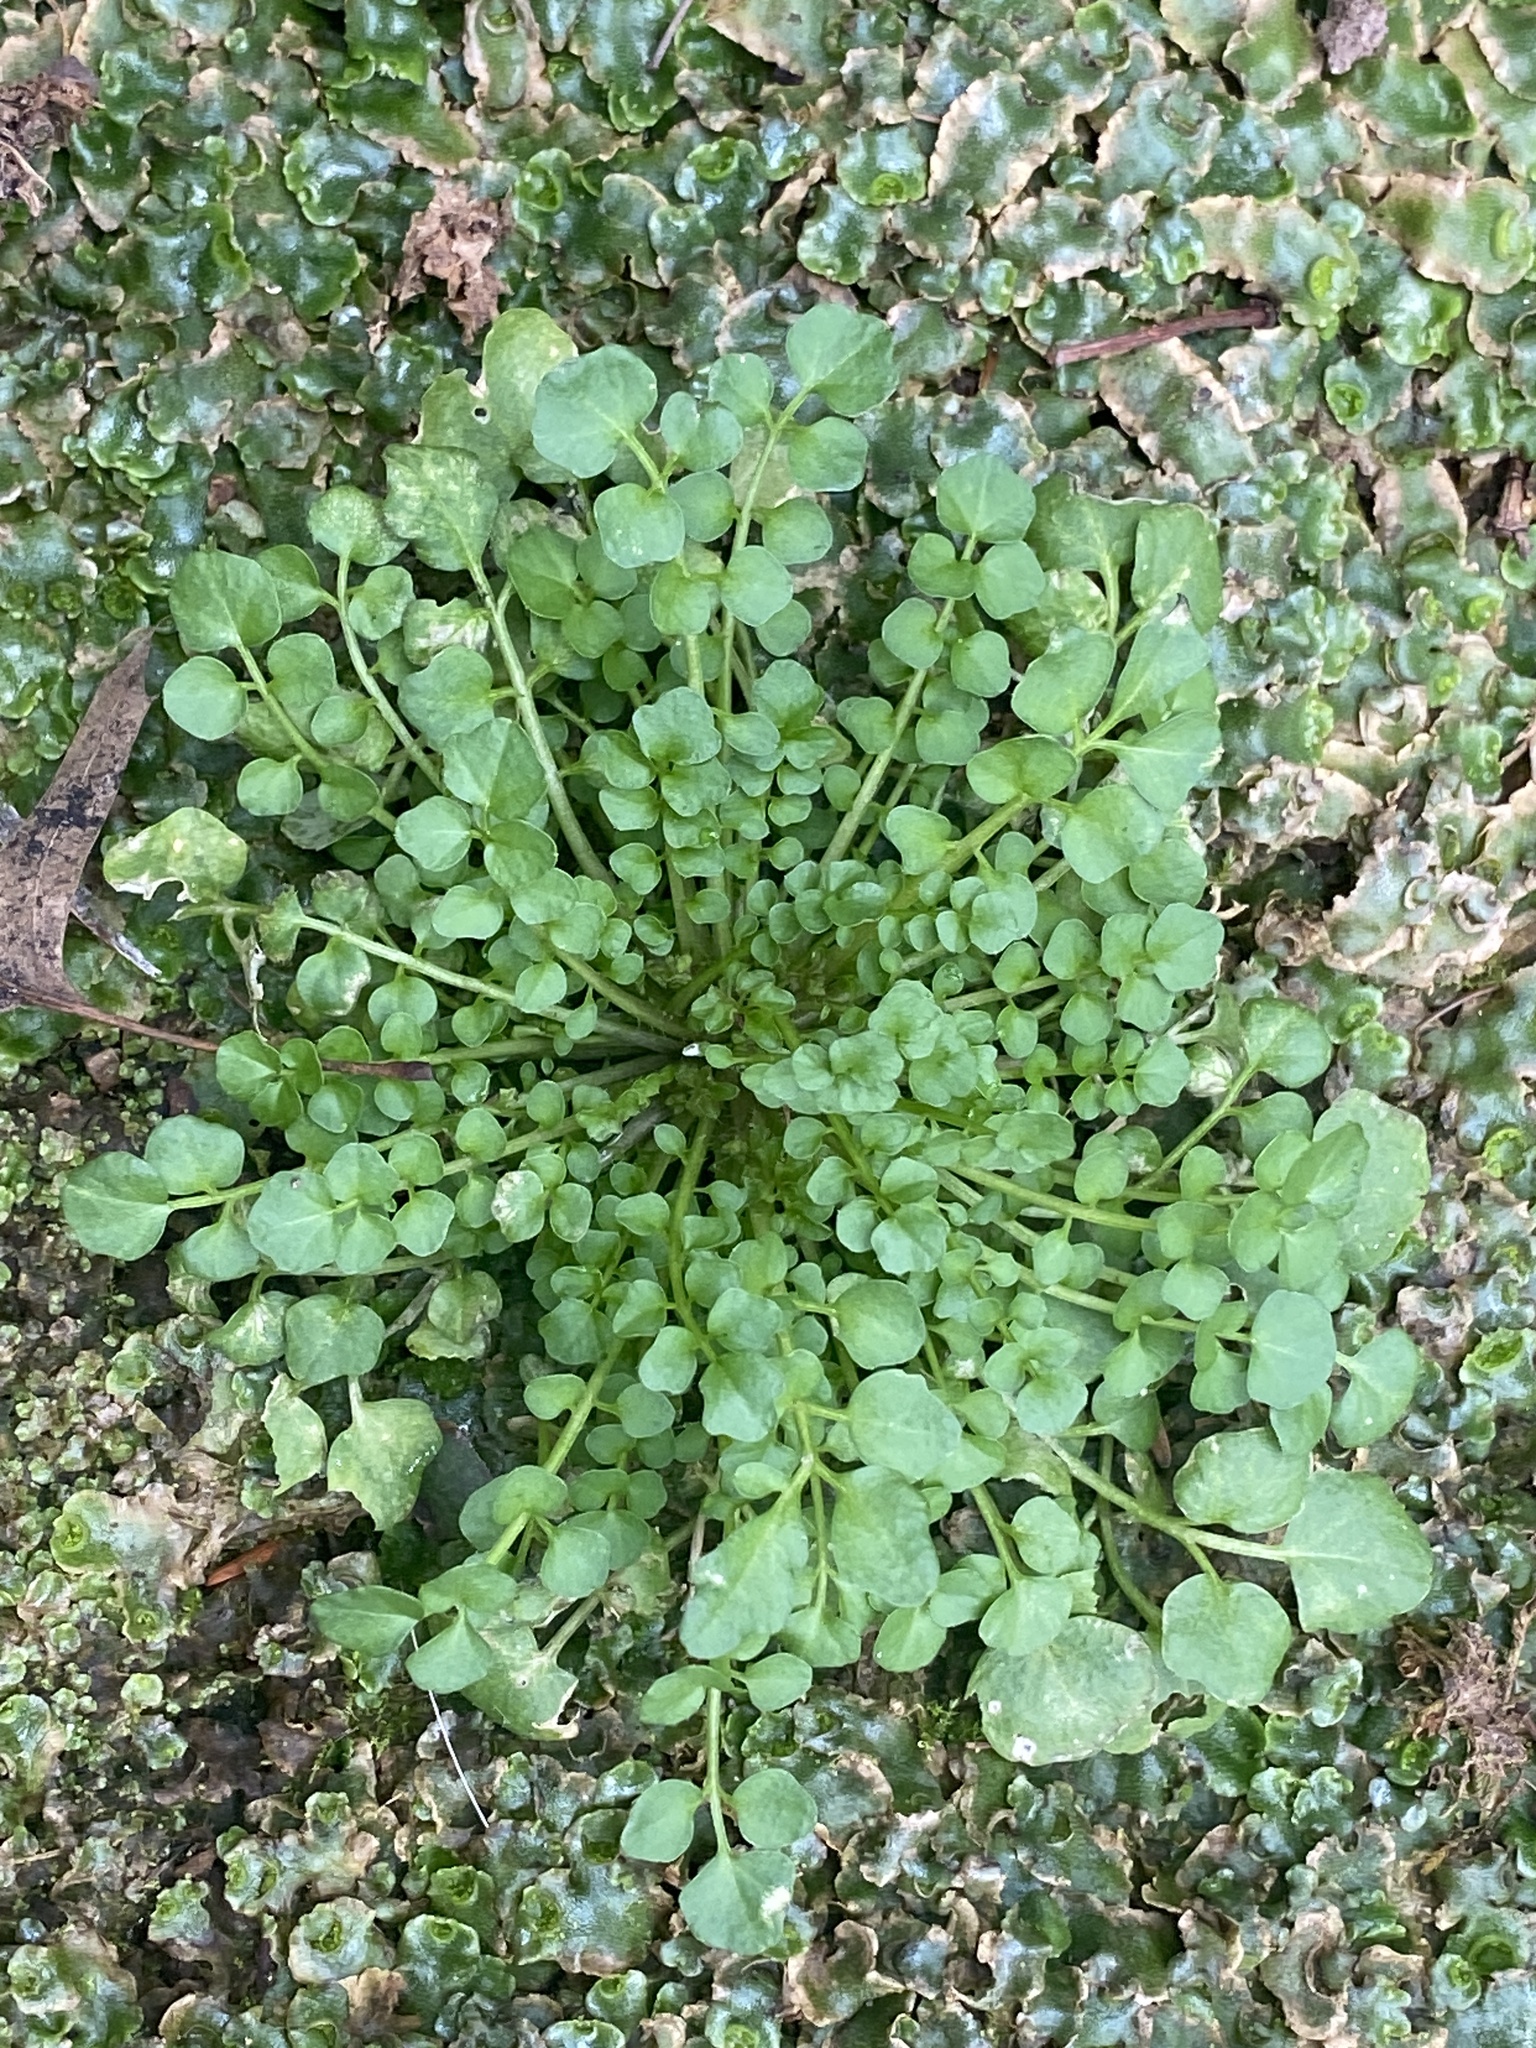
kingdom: Plantae
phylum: Tracheophyta
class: Magnoliopsida
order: Brassicales
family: Brassicaceae
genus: Cardamine
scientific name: Cardamine hirsuta
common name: Hairy bittercress
